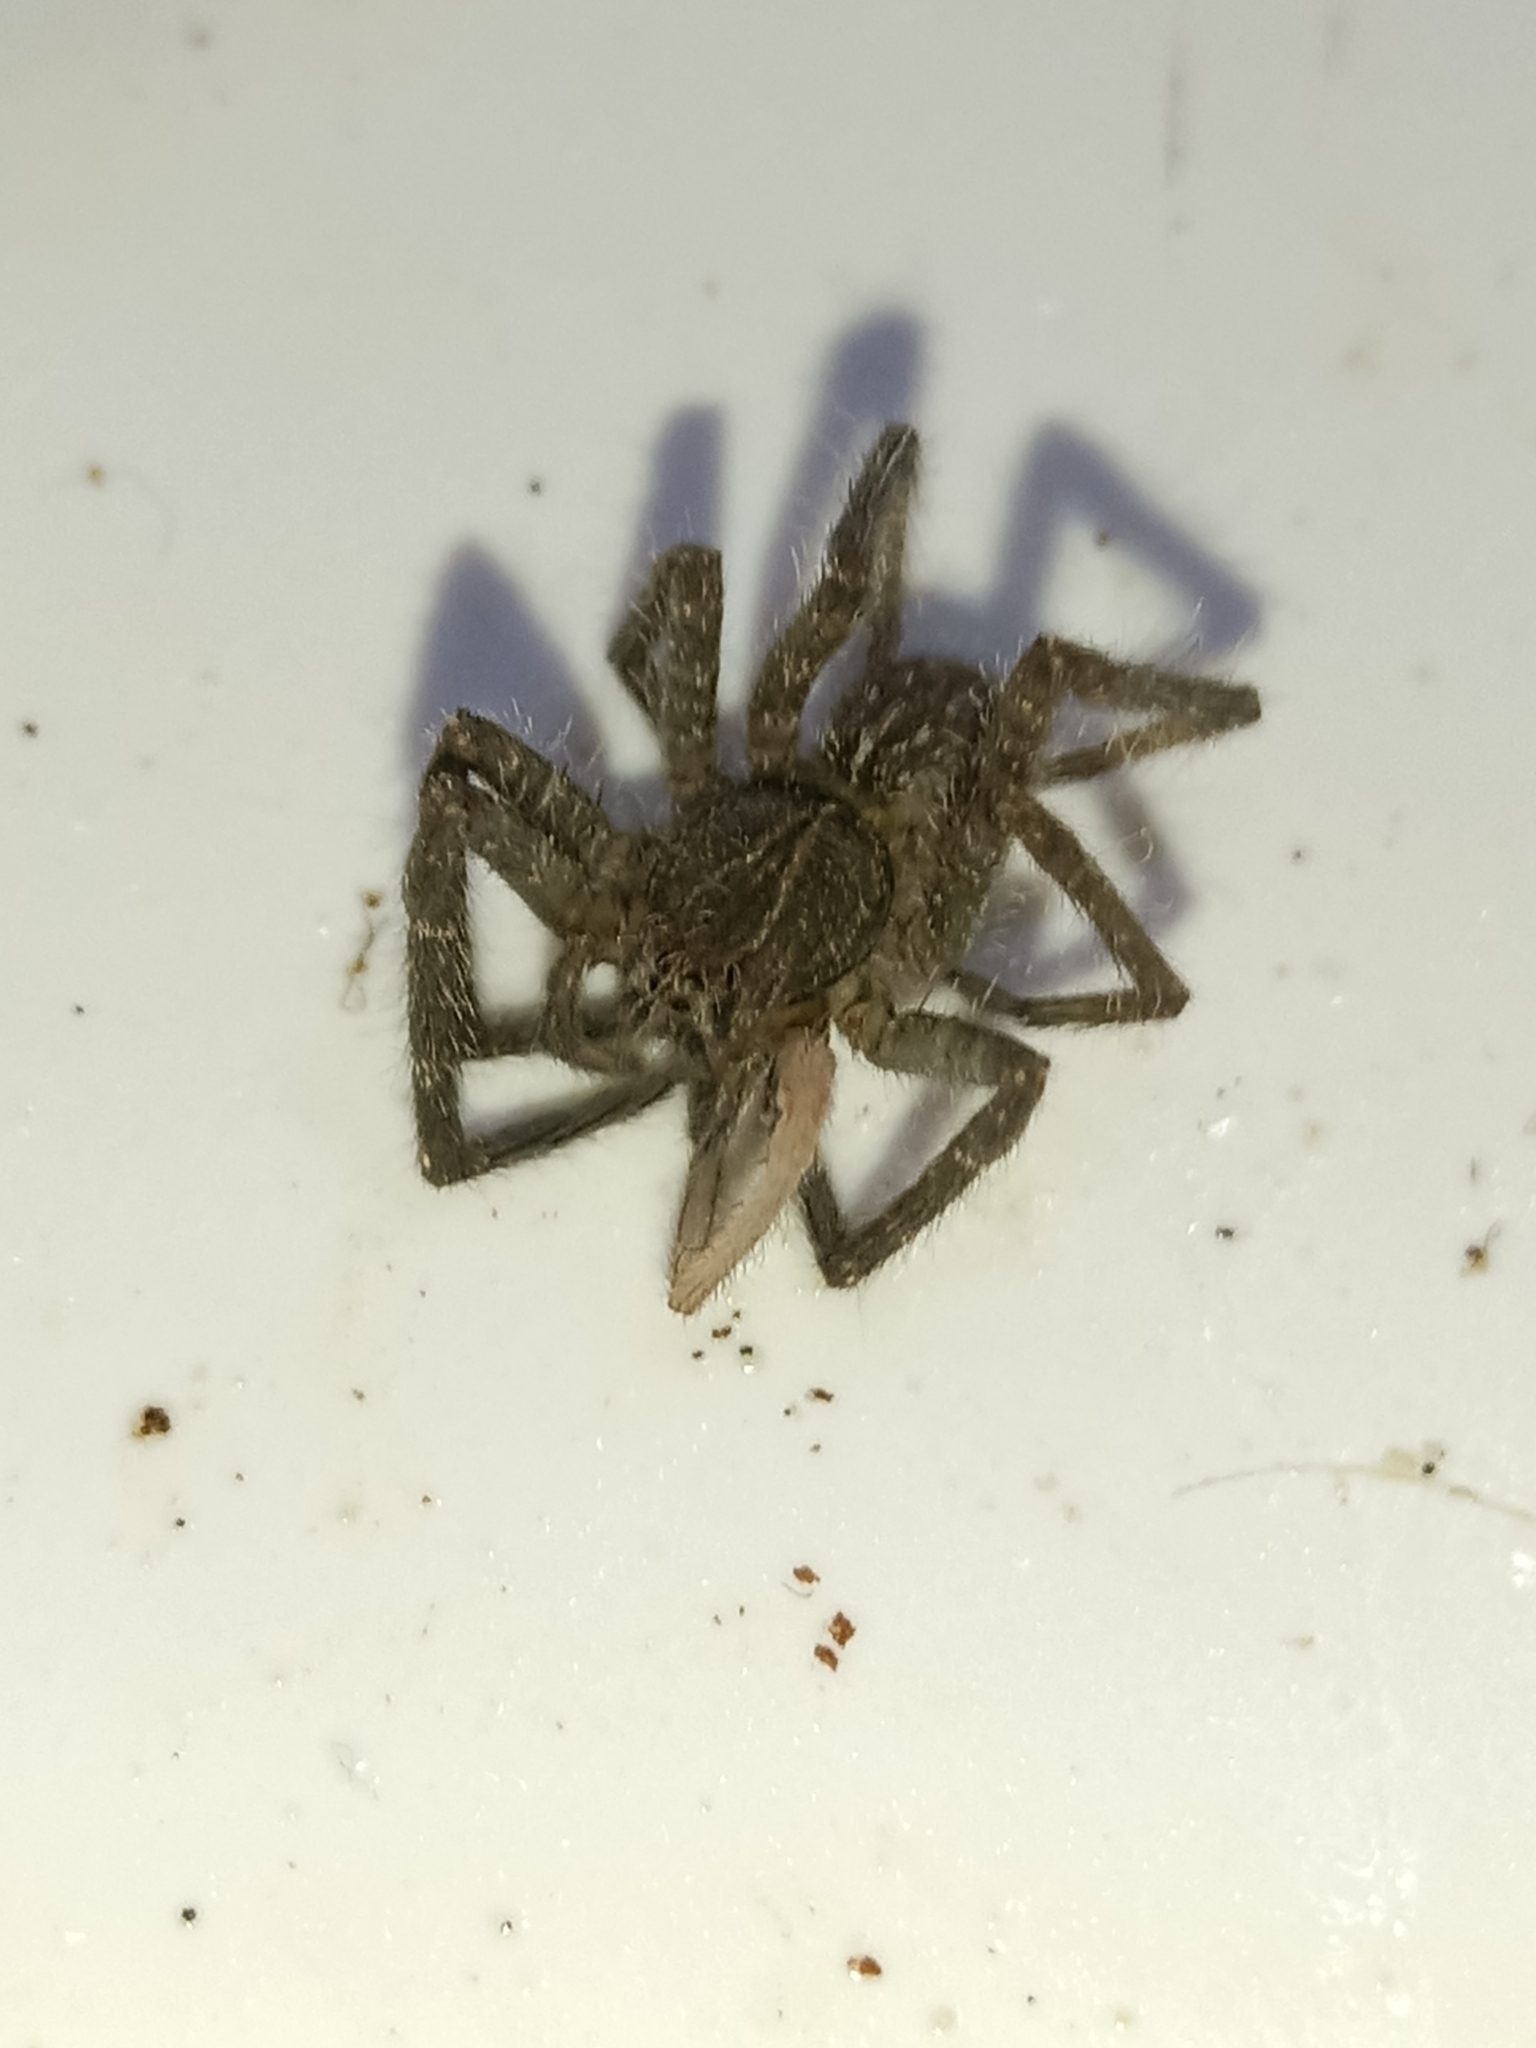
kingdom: Animalia
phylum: Arthropoda
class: Arachnida
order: Araneae
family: Ctenidae
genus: Phoneutria
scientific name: Phoneutria fera
